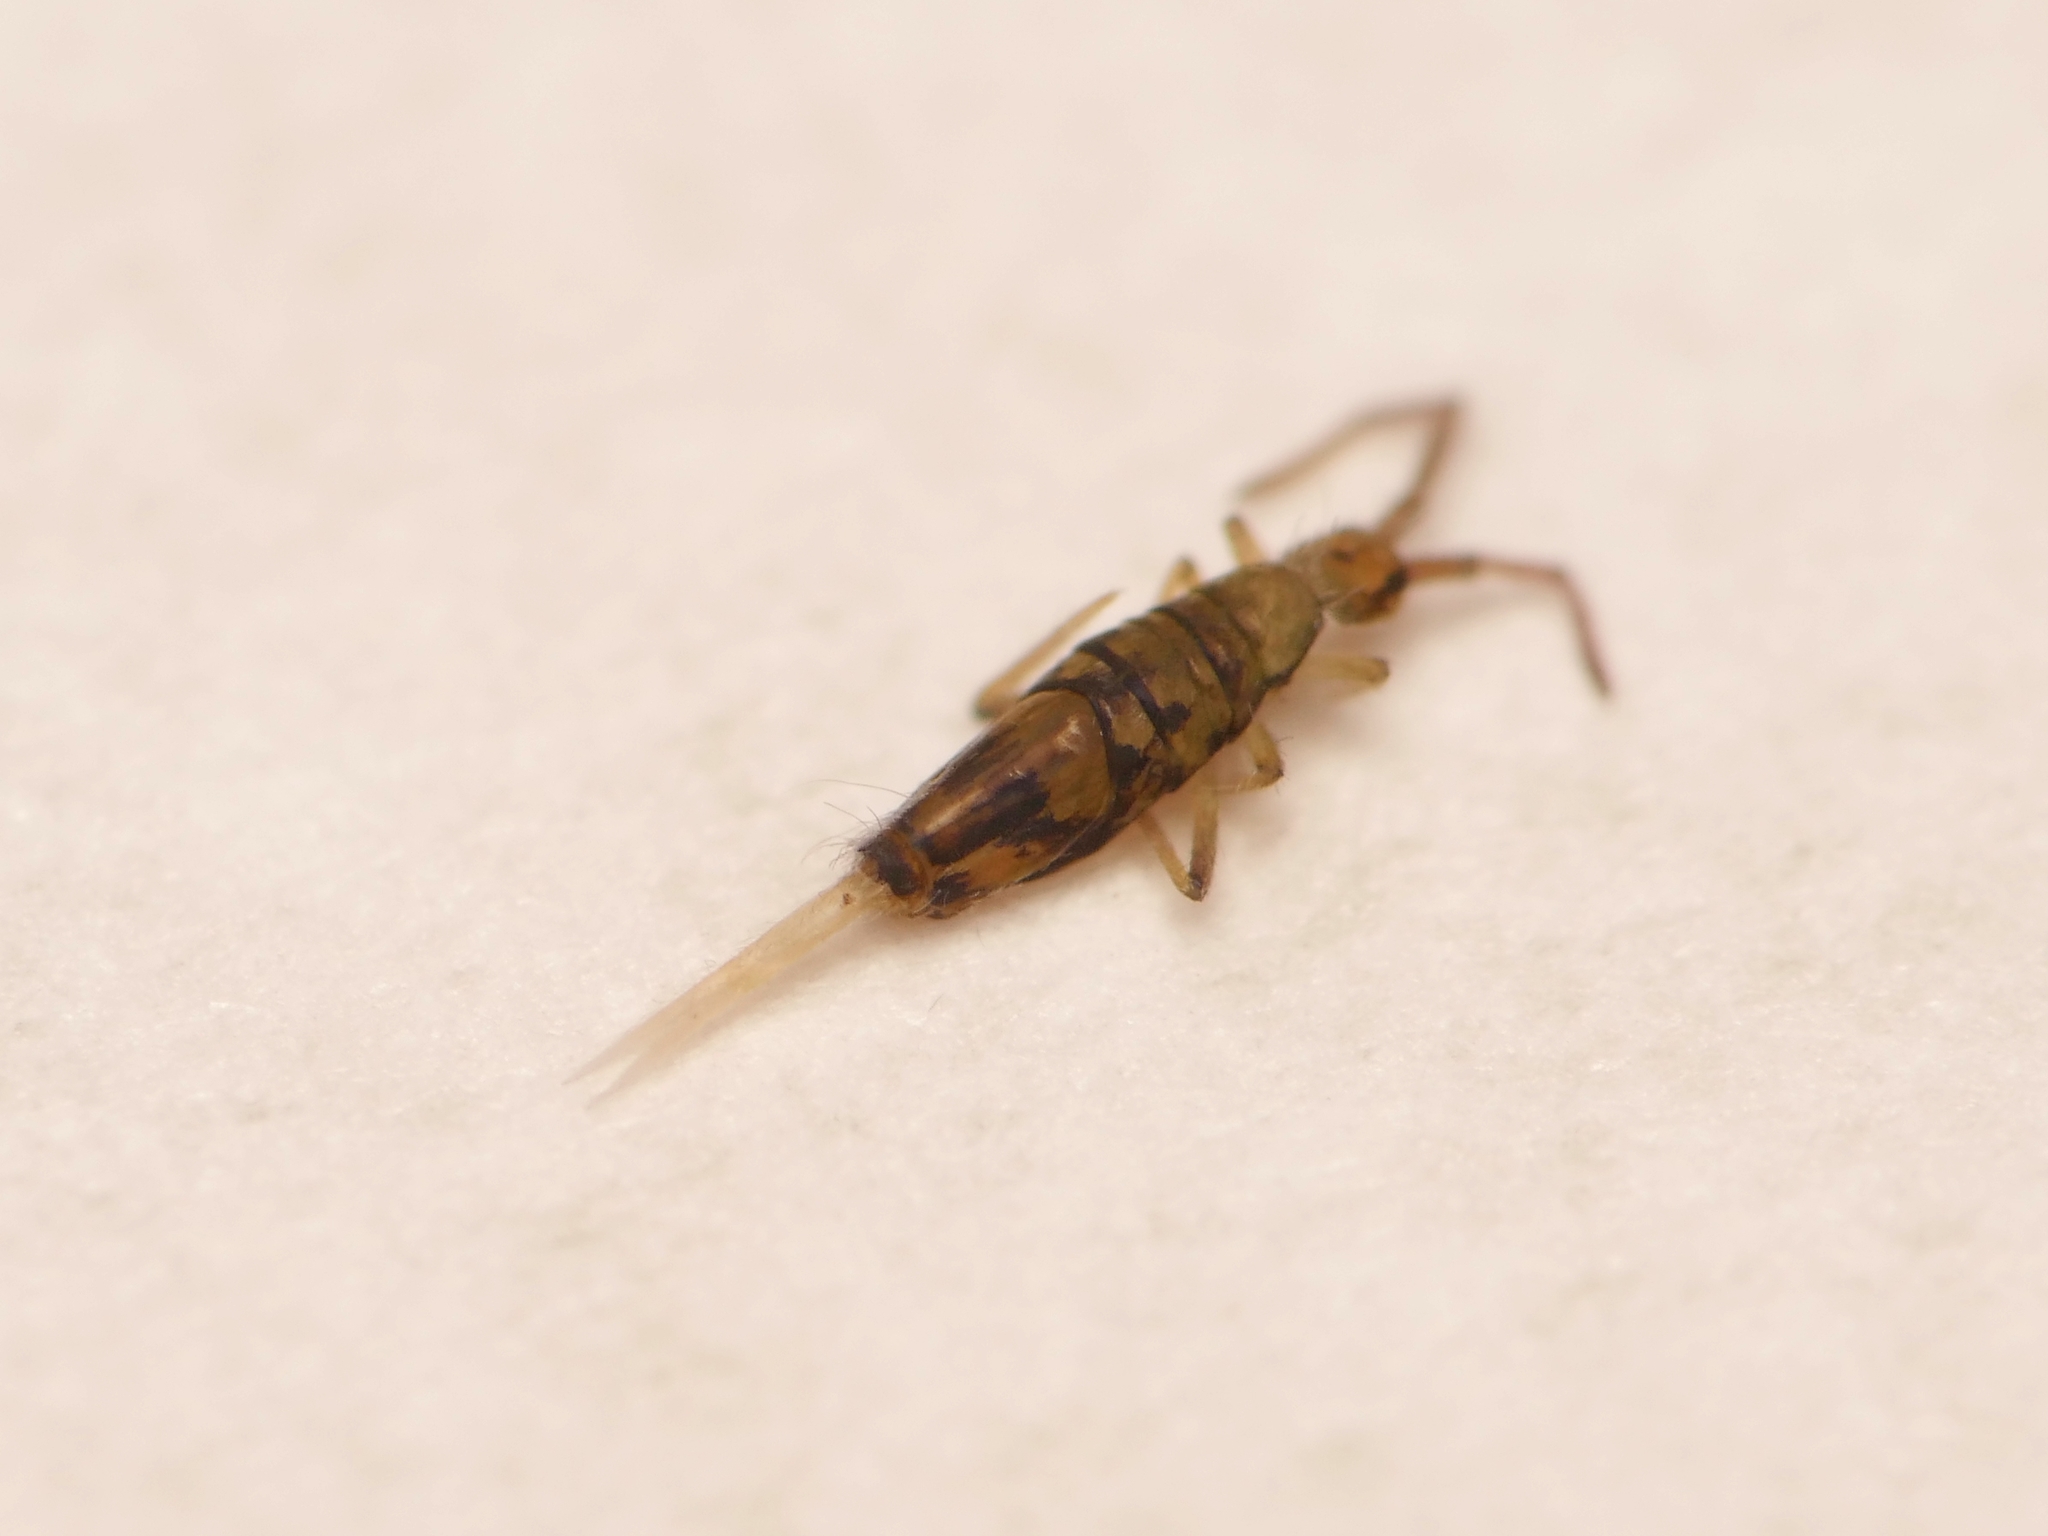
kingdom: Animalia
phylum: Arthropoda
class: Collembola
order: Entomobryomorpha
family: Entomobryidae
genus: Entomobrya
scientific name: Entomobrya nivalis
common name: Cosmopolitan springtail
